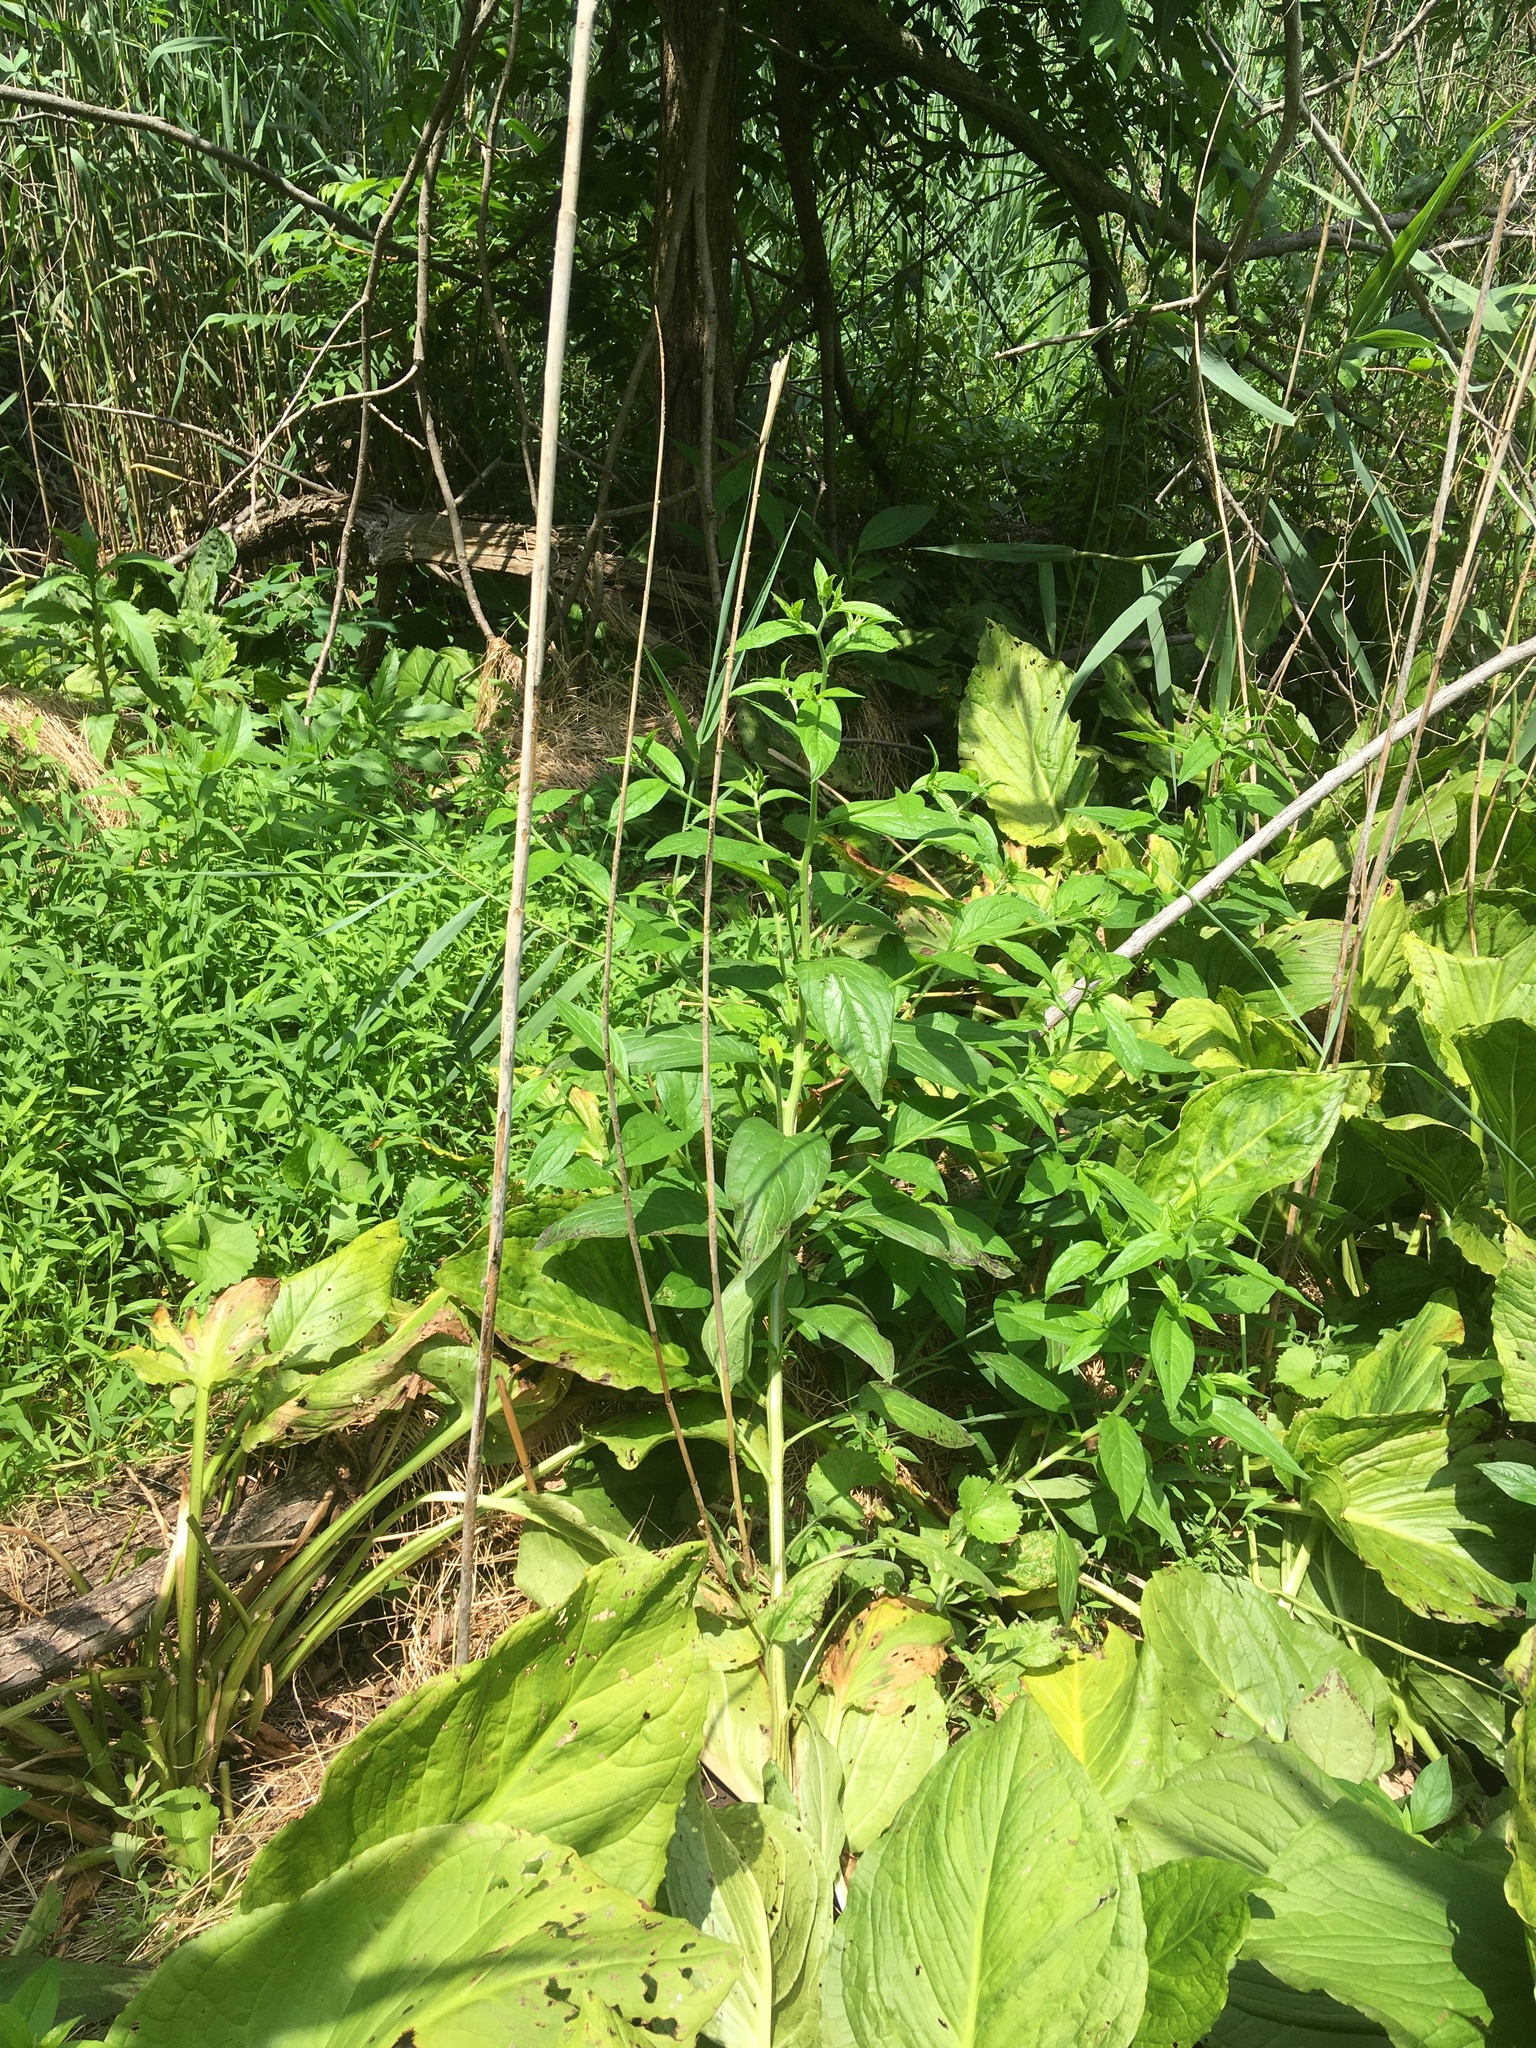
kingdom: Plantae
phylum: Tracheophyta
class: Magnoliopsida
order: Boraginales
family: Boraginaceae
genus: Hackelia
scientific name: Hackelia virginiana
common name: Beggar's-lice
